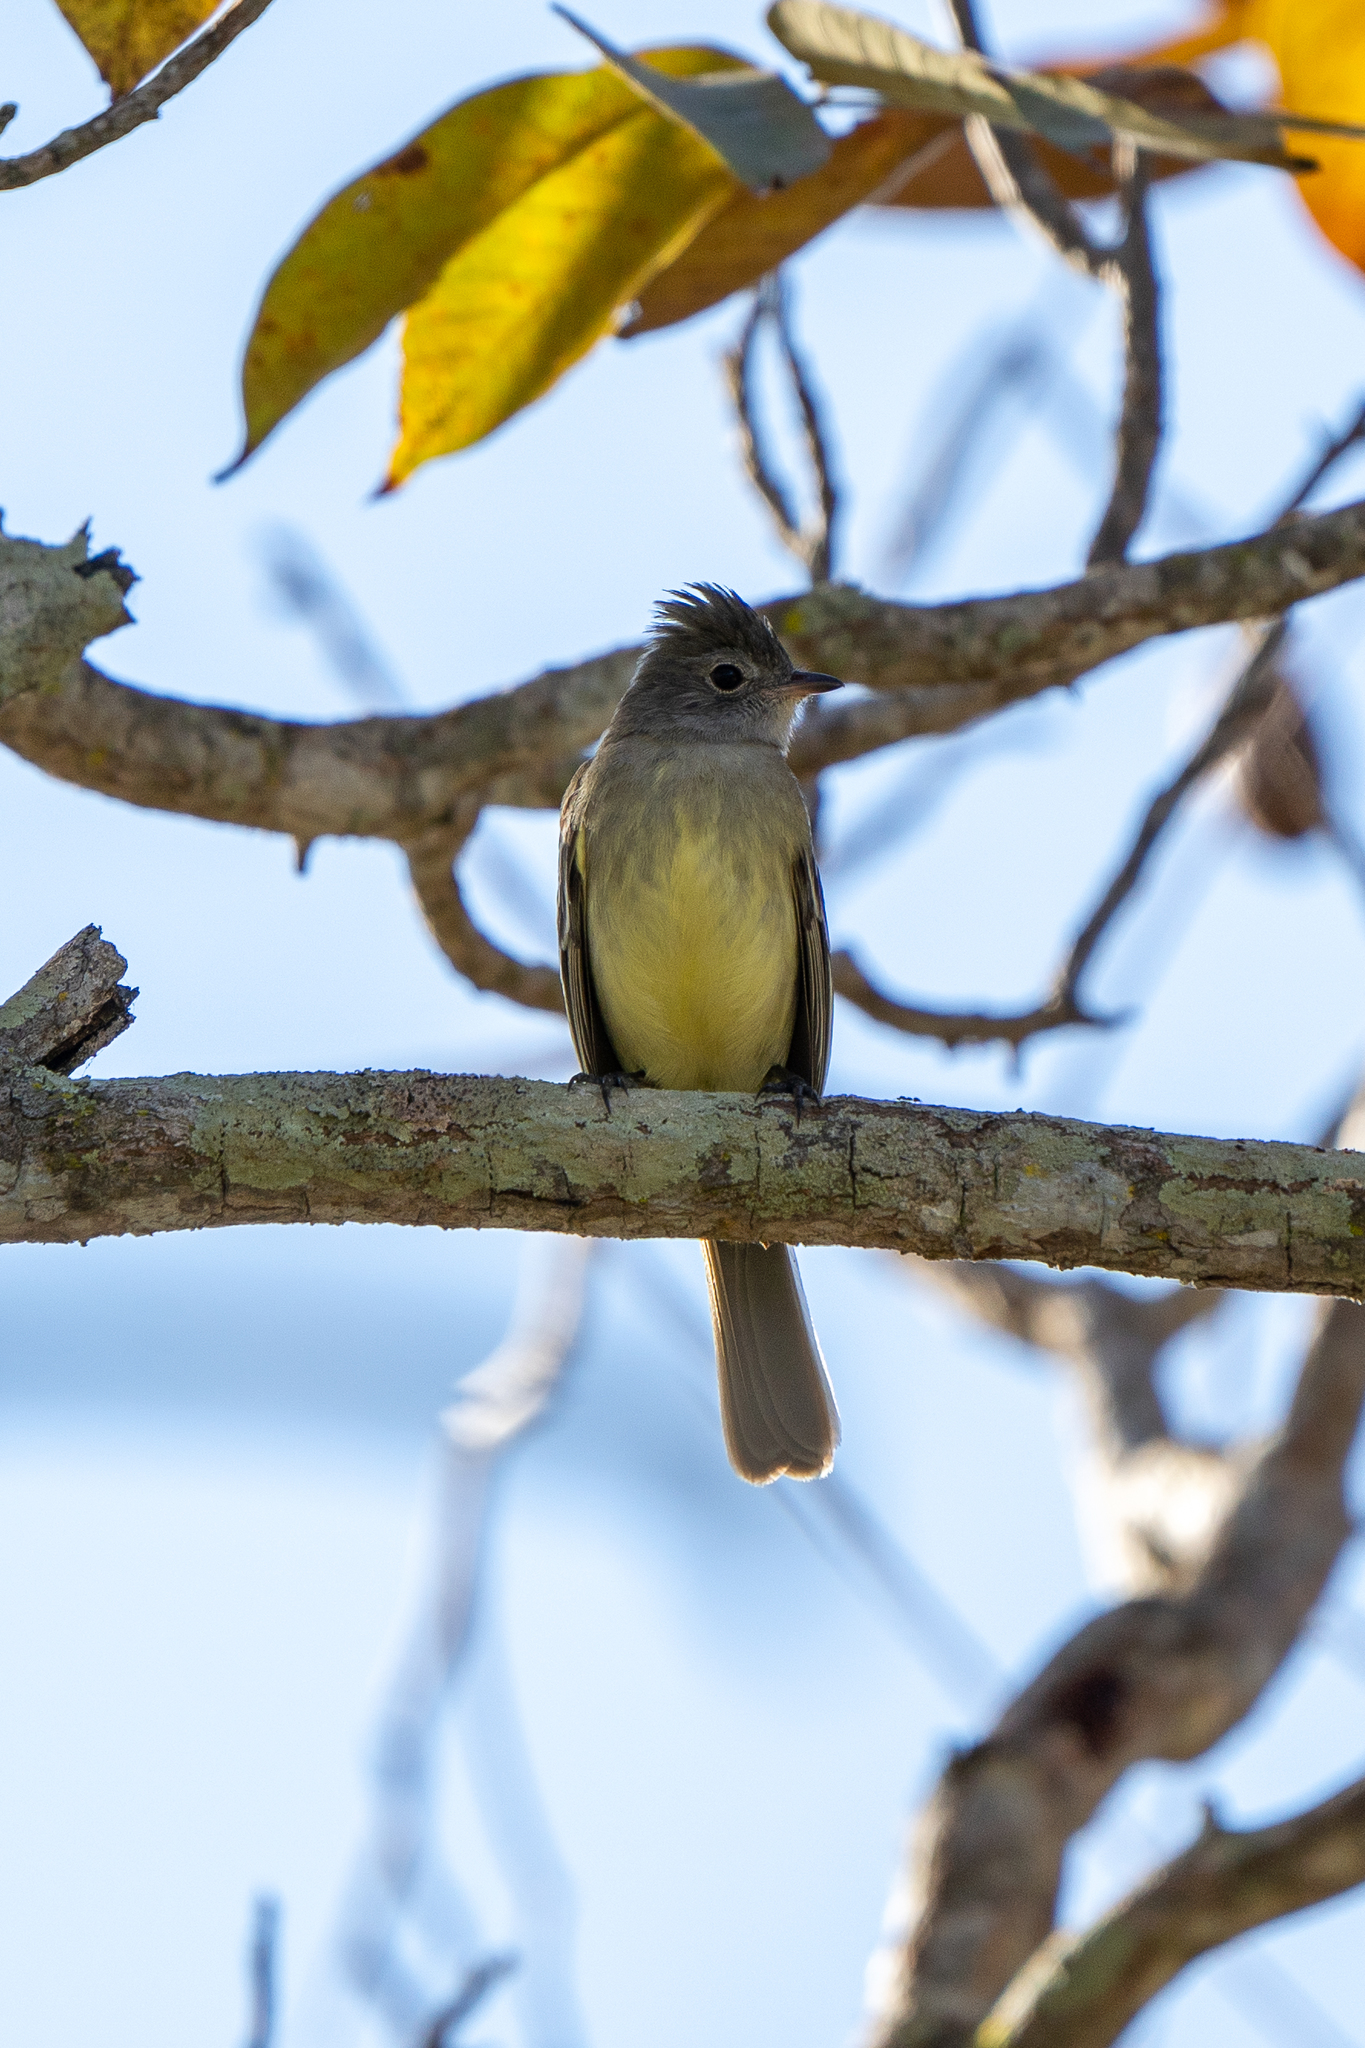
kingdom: Animalia
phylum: Chordata
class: Aves
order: Passeriformes
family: Tyrannidae
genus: Elaenia
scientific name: Elaenia flavogaster
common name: Yellow-bellied elaenia
